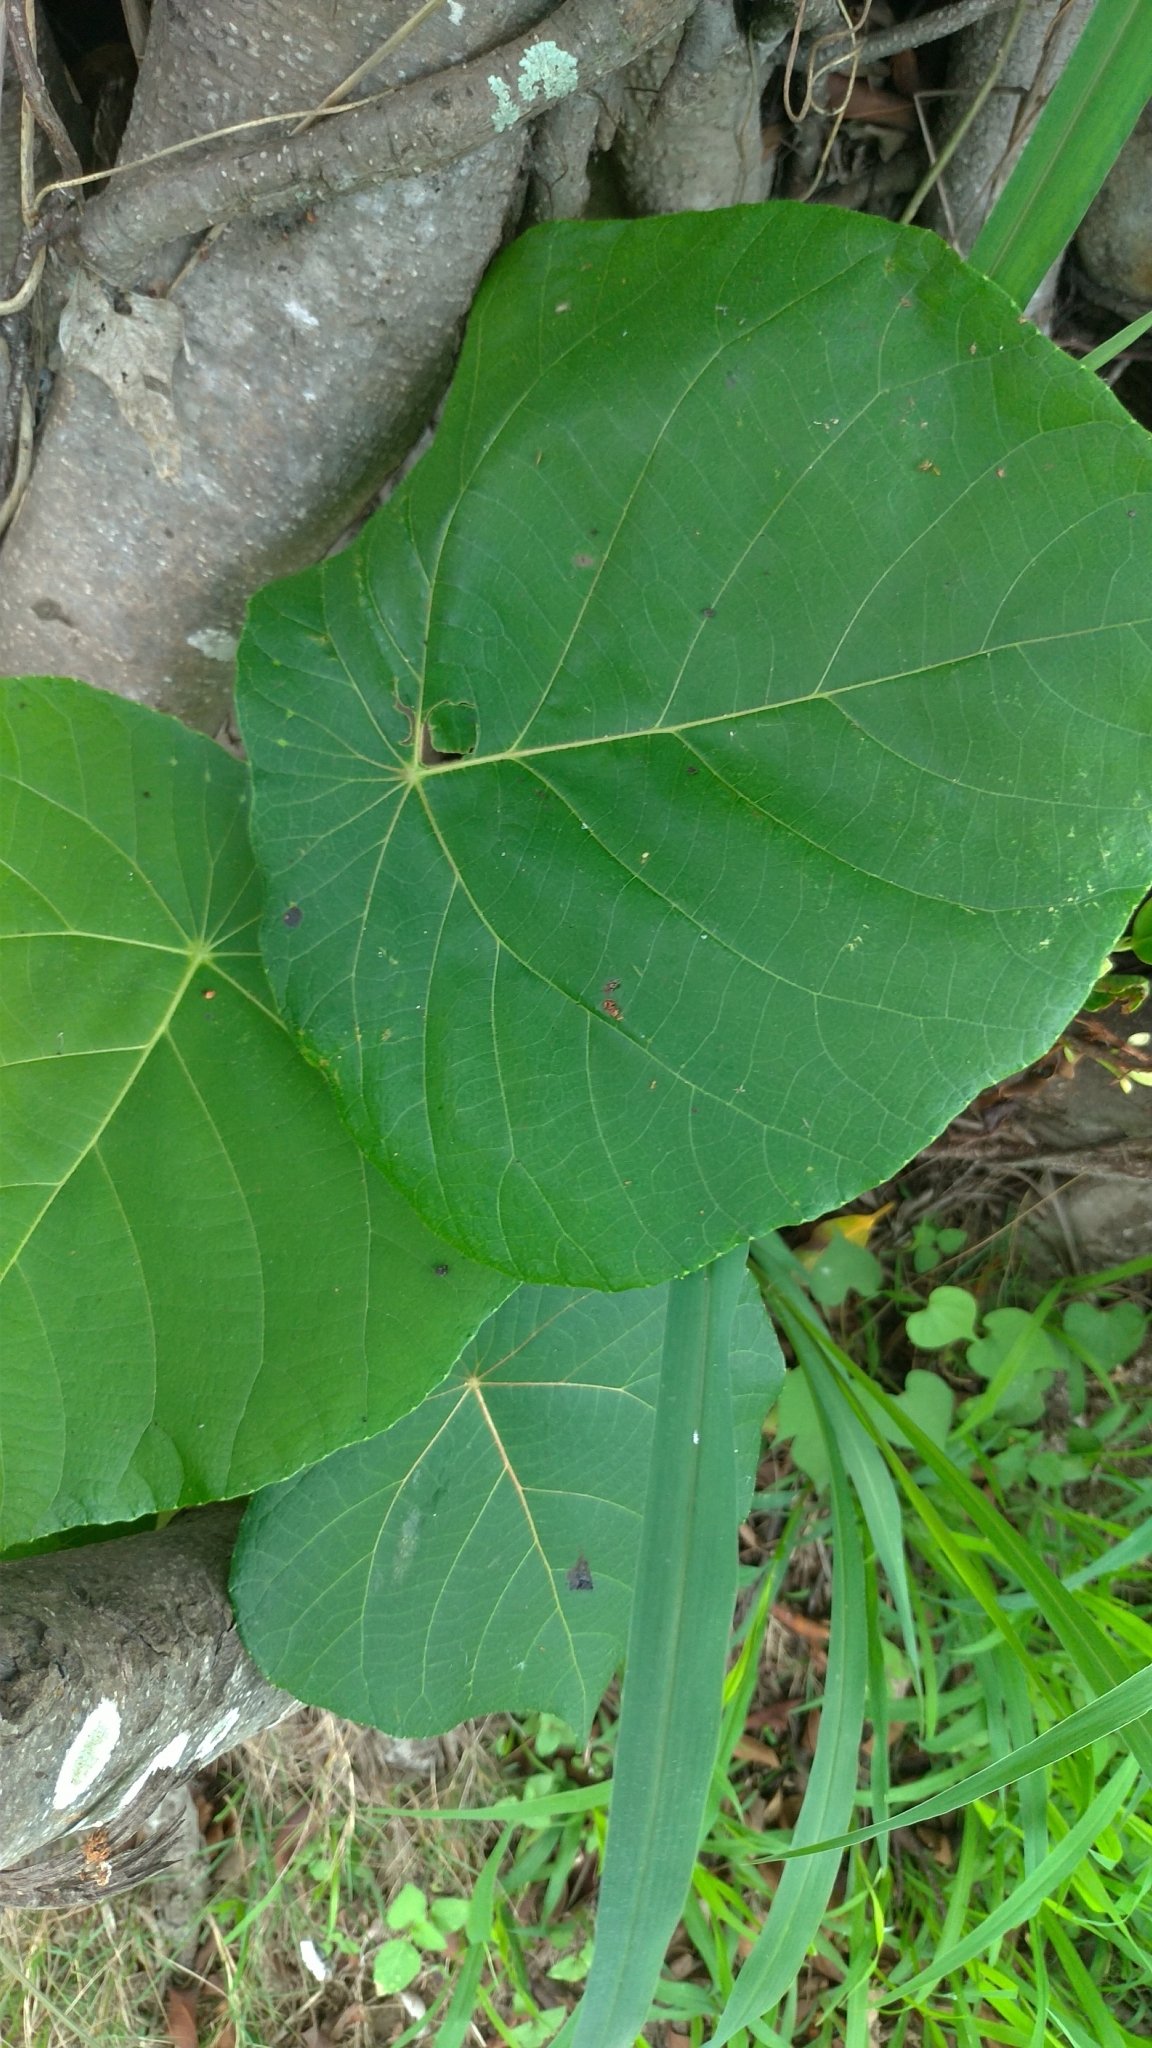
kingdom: Plantae
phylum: Tracheophyta
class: Magnoliopsida
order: Malpighiales
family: Euphorbiaceae
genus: Macaranga
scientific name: Macaranga tanarius
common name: Parasol leaf tree
